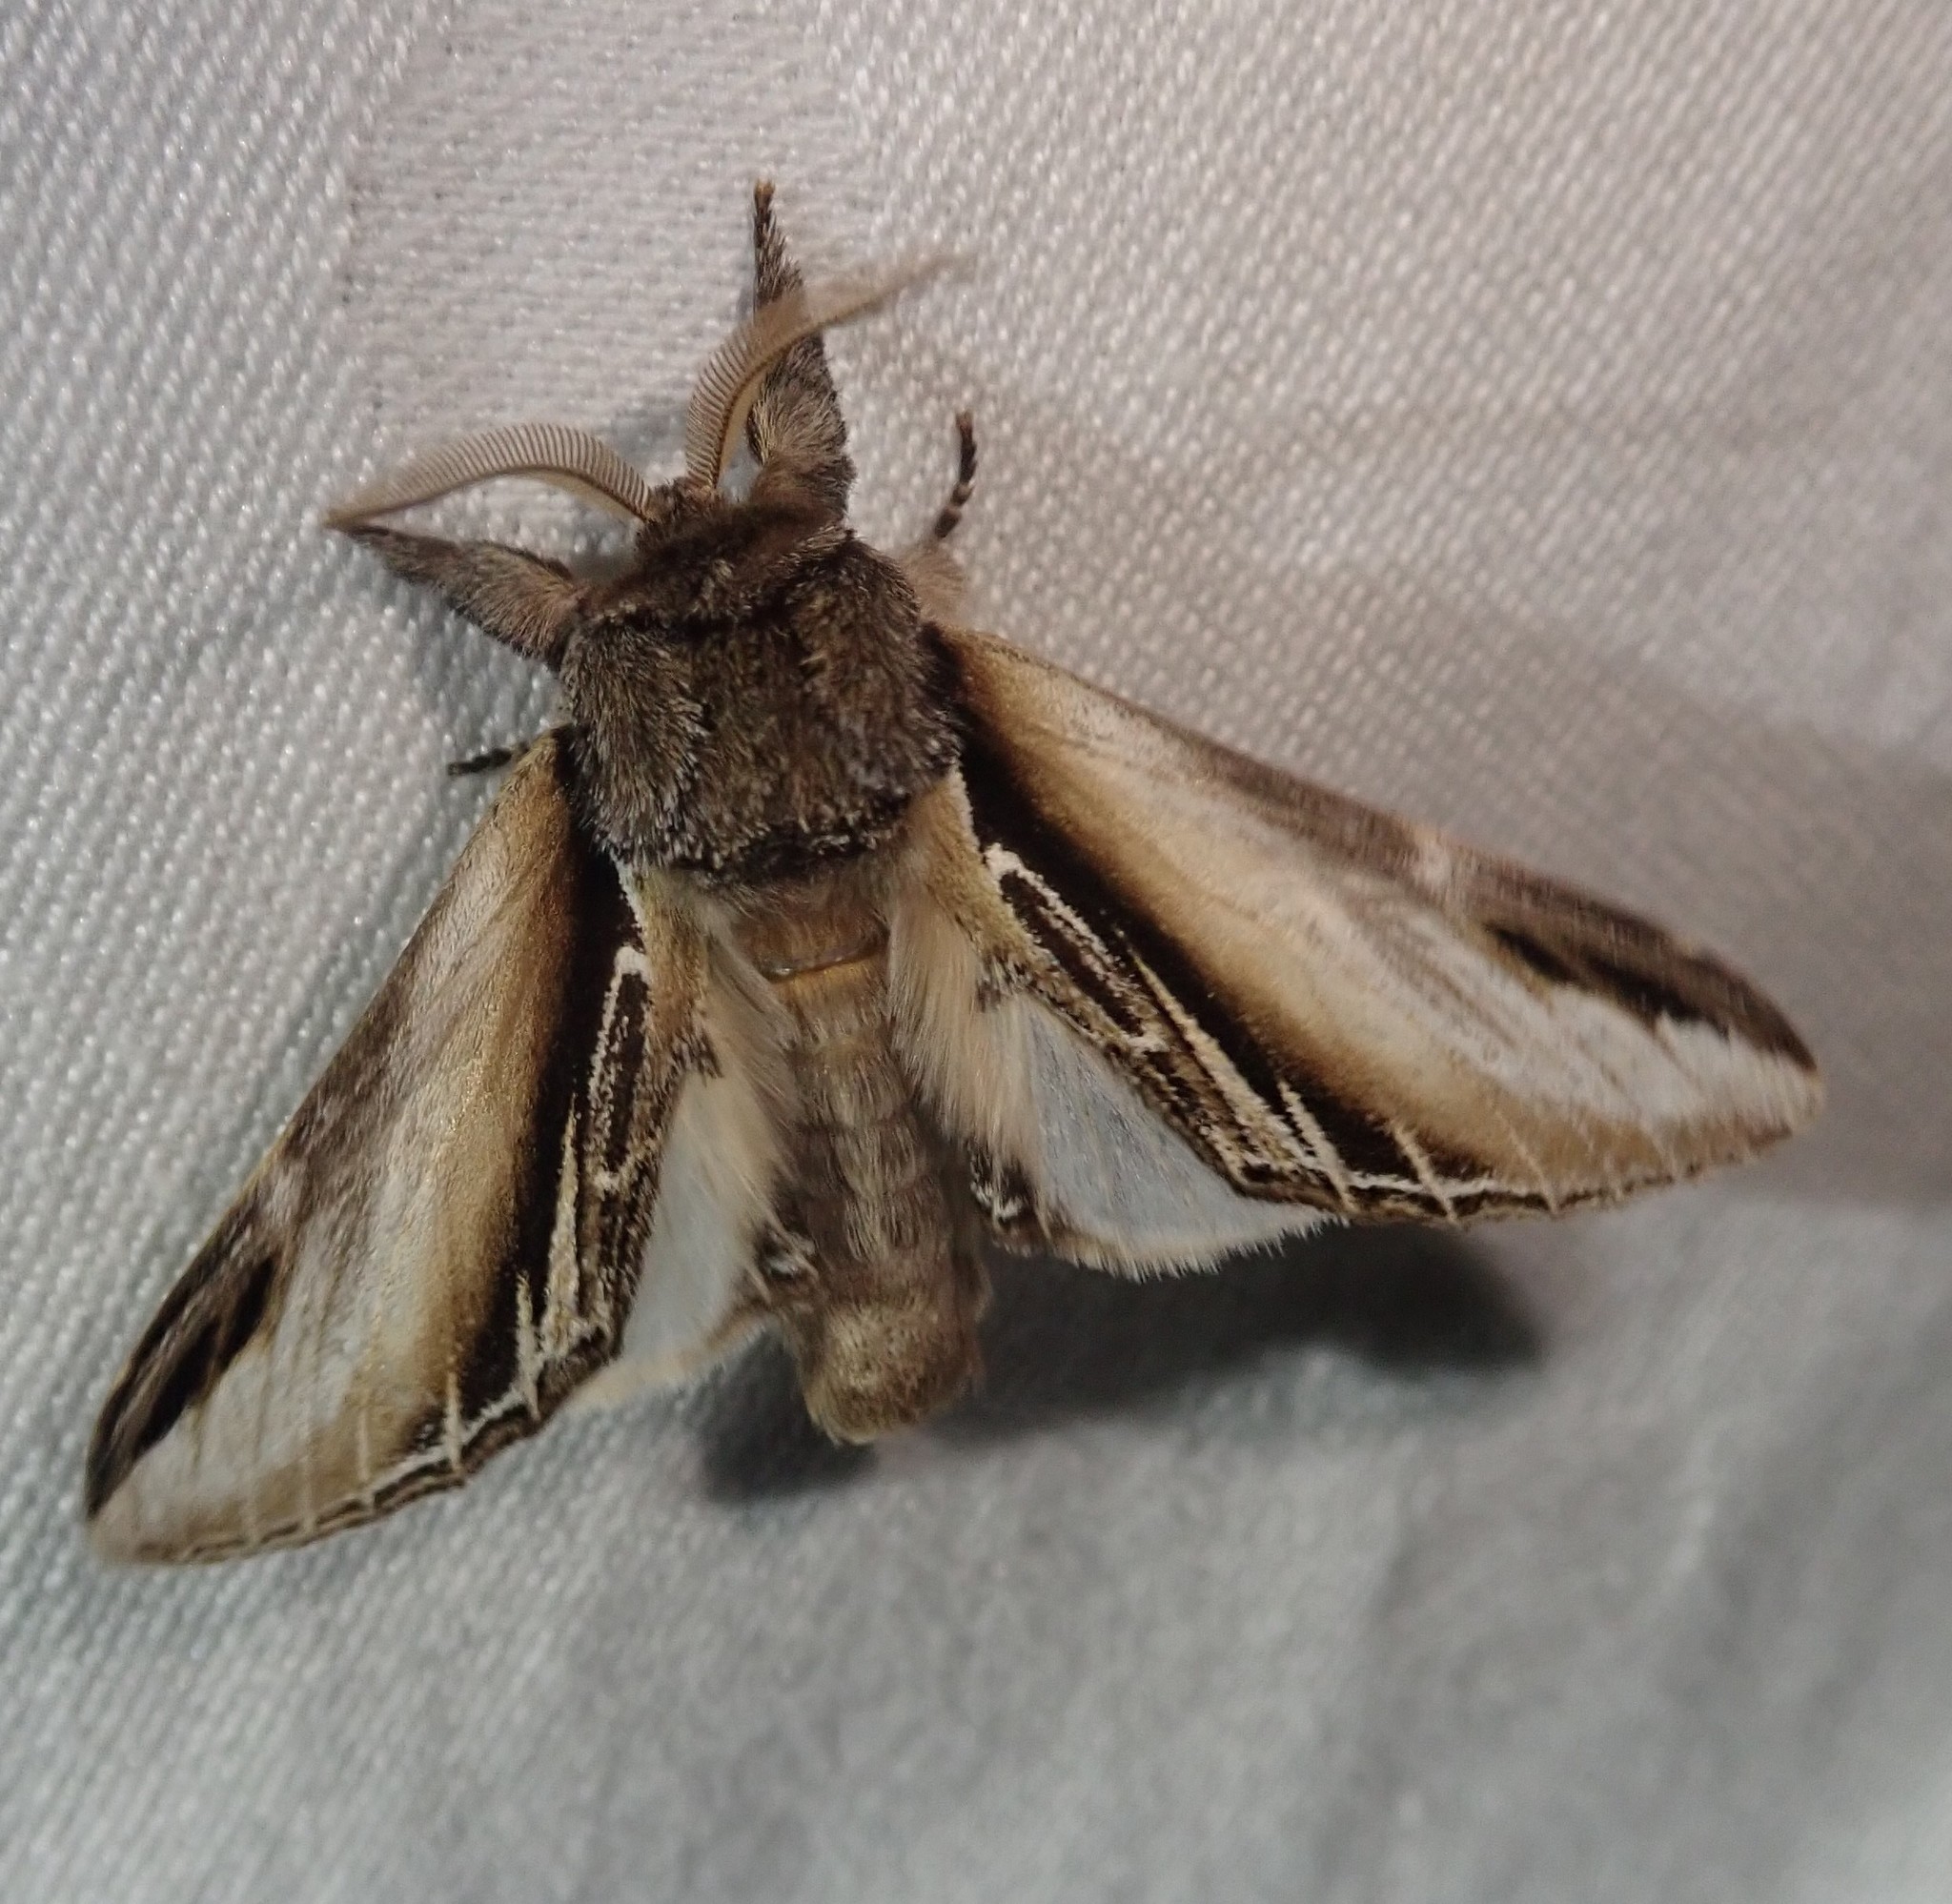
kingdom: Animalia
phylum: Arthropoda
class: Insecta
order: Lepidoptera
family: Notodontidae
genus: Pheosia
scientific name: Pheosia tremula
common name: Swallow prominent
